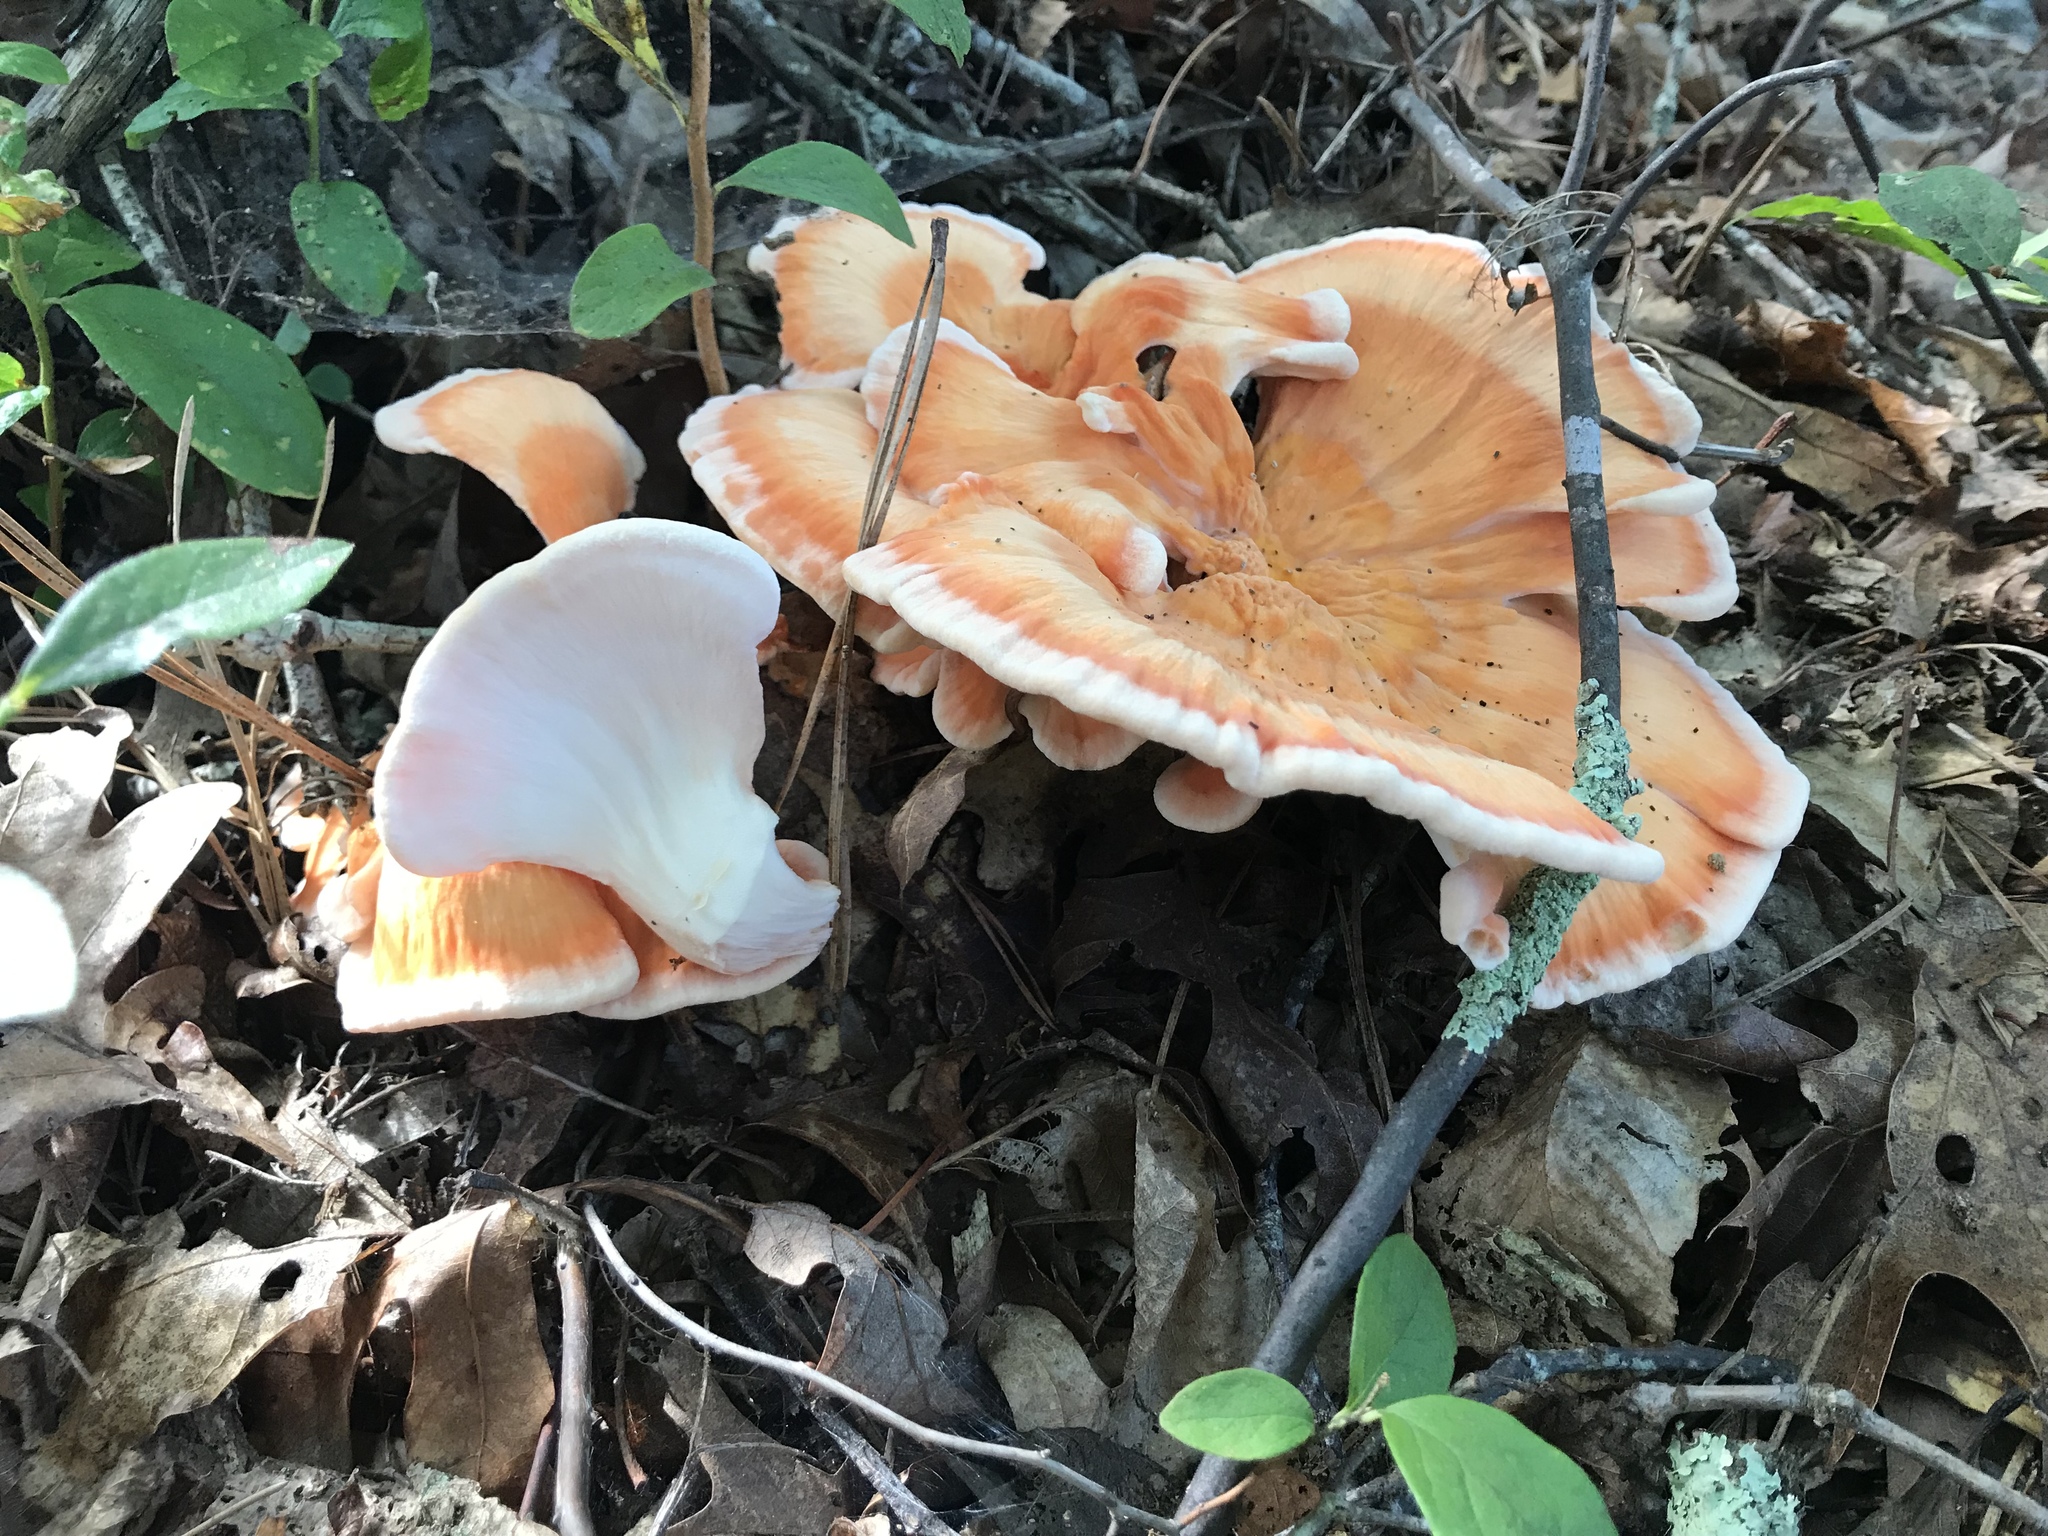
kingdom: Fungi
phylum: Basidiomycota
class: Agaricomycetes
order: Polyporales
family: Laetiporaceae
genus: Laetiporus
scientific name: Laetiporus sulphureus
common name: Chicken of the woods
